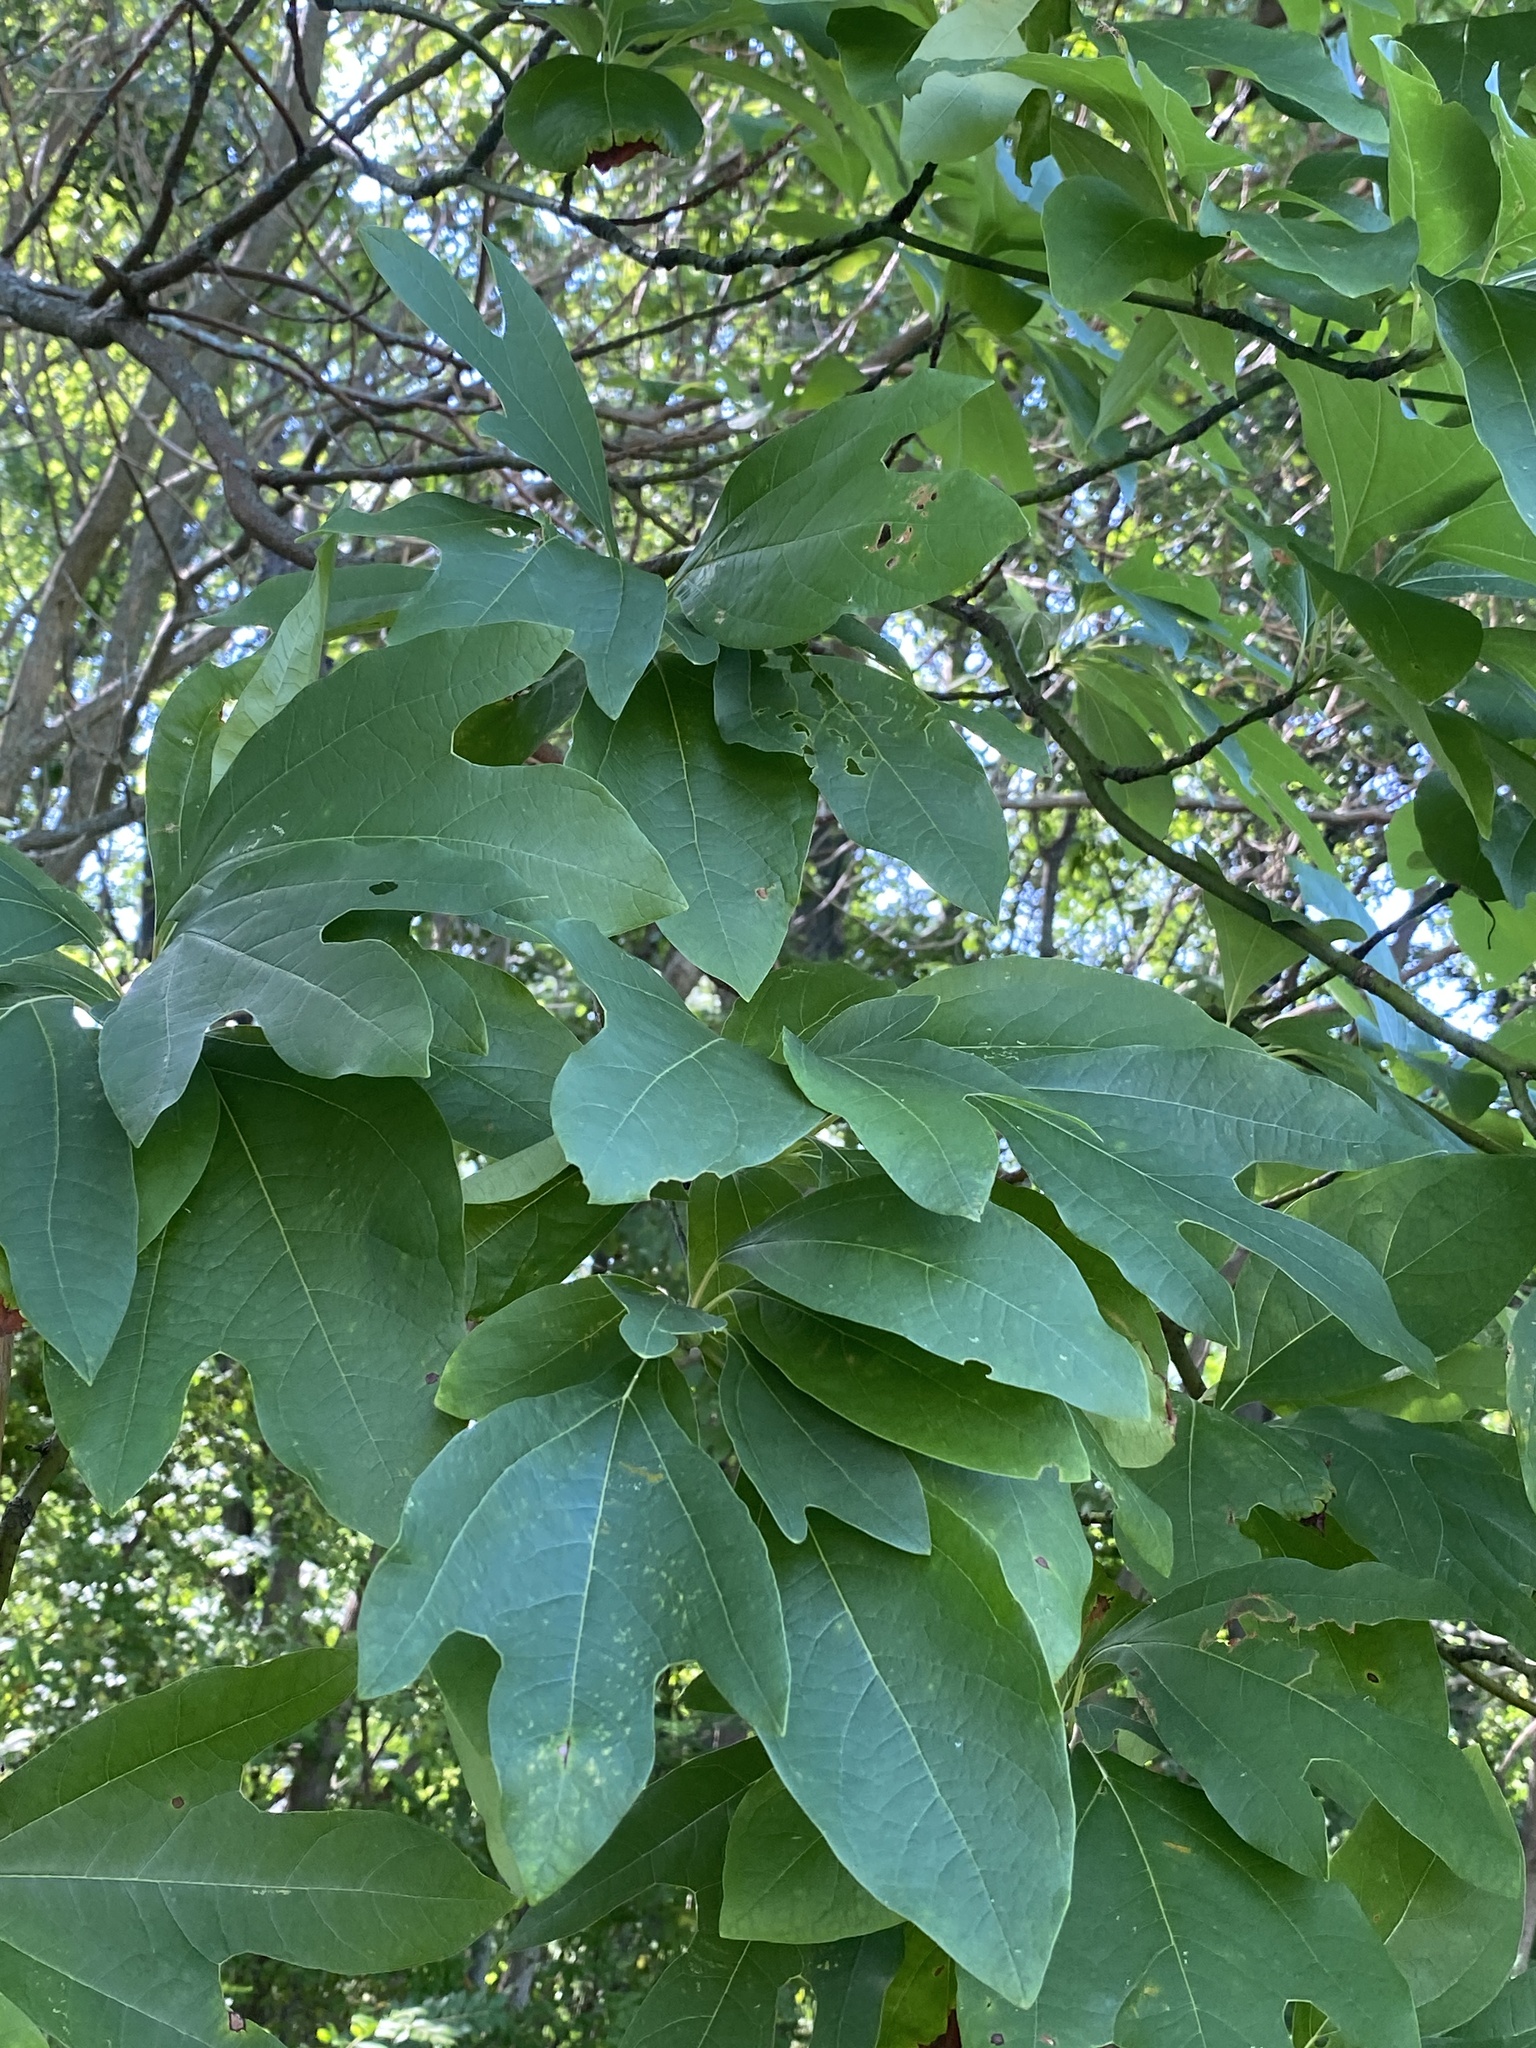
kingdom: Plantae
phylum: Tracheophyta
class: Magnoliopsida
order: Laurales
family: Lauraceae
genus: Sassafras
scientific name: Sassafras albidum
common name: Sassafras
